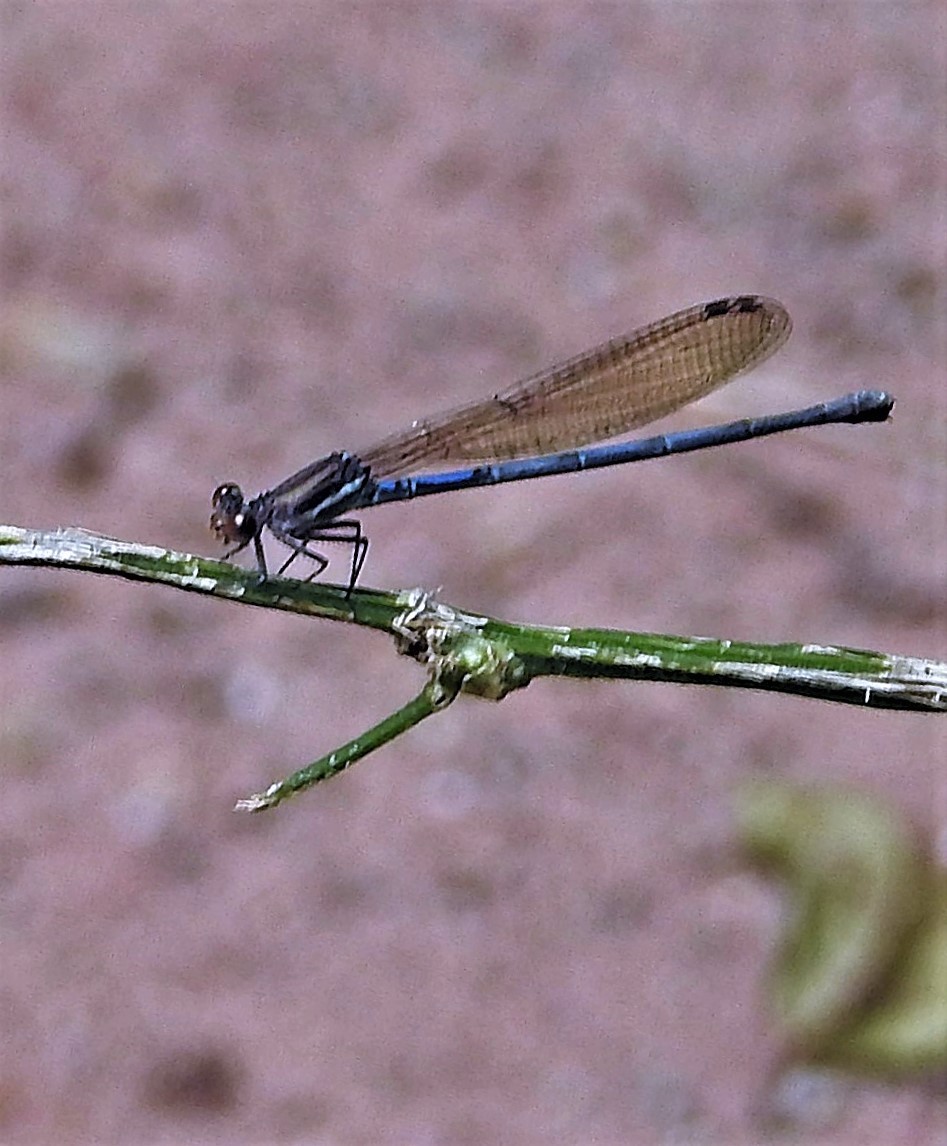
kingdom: Animalia
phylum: Arthropoda
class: Insecta
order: Odonata
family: Coenagrionidae
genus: Argia
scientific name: Argia jujuya
